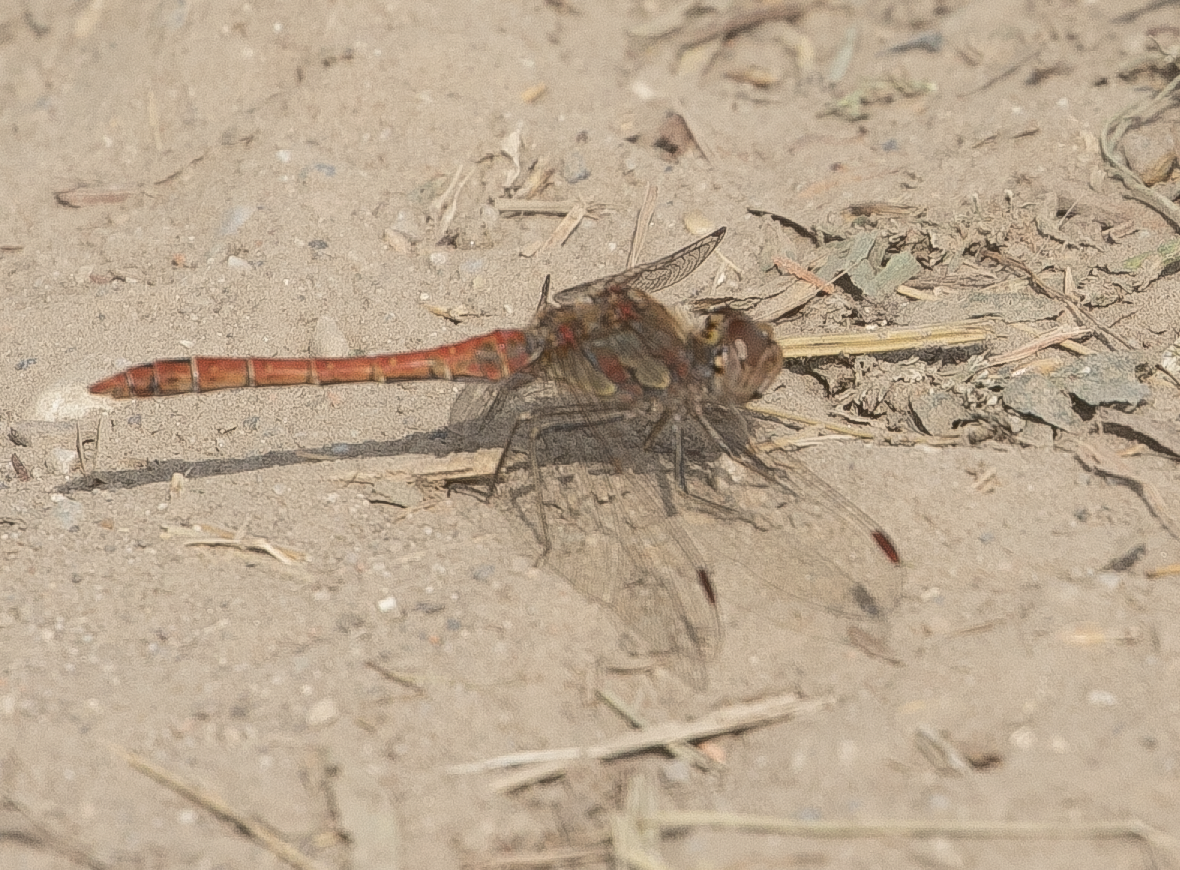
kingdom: Animalia
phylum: Arthropoda
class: Insecta
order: Odonata
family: Libellulidae
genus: Sympetrum
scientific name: Sympetrum striolatum
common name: Common darter
